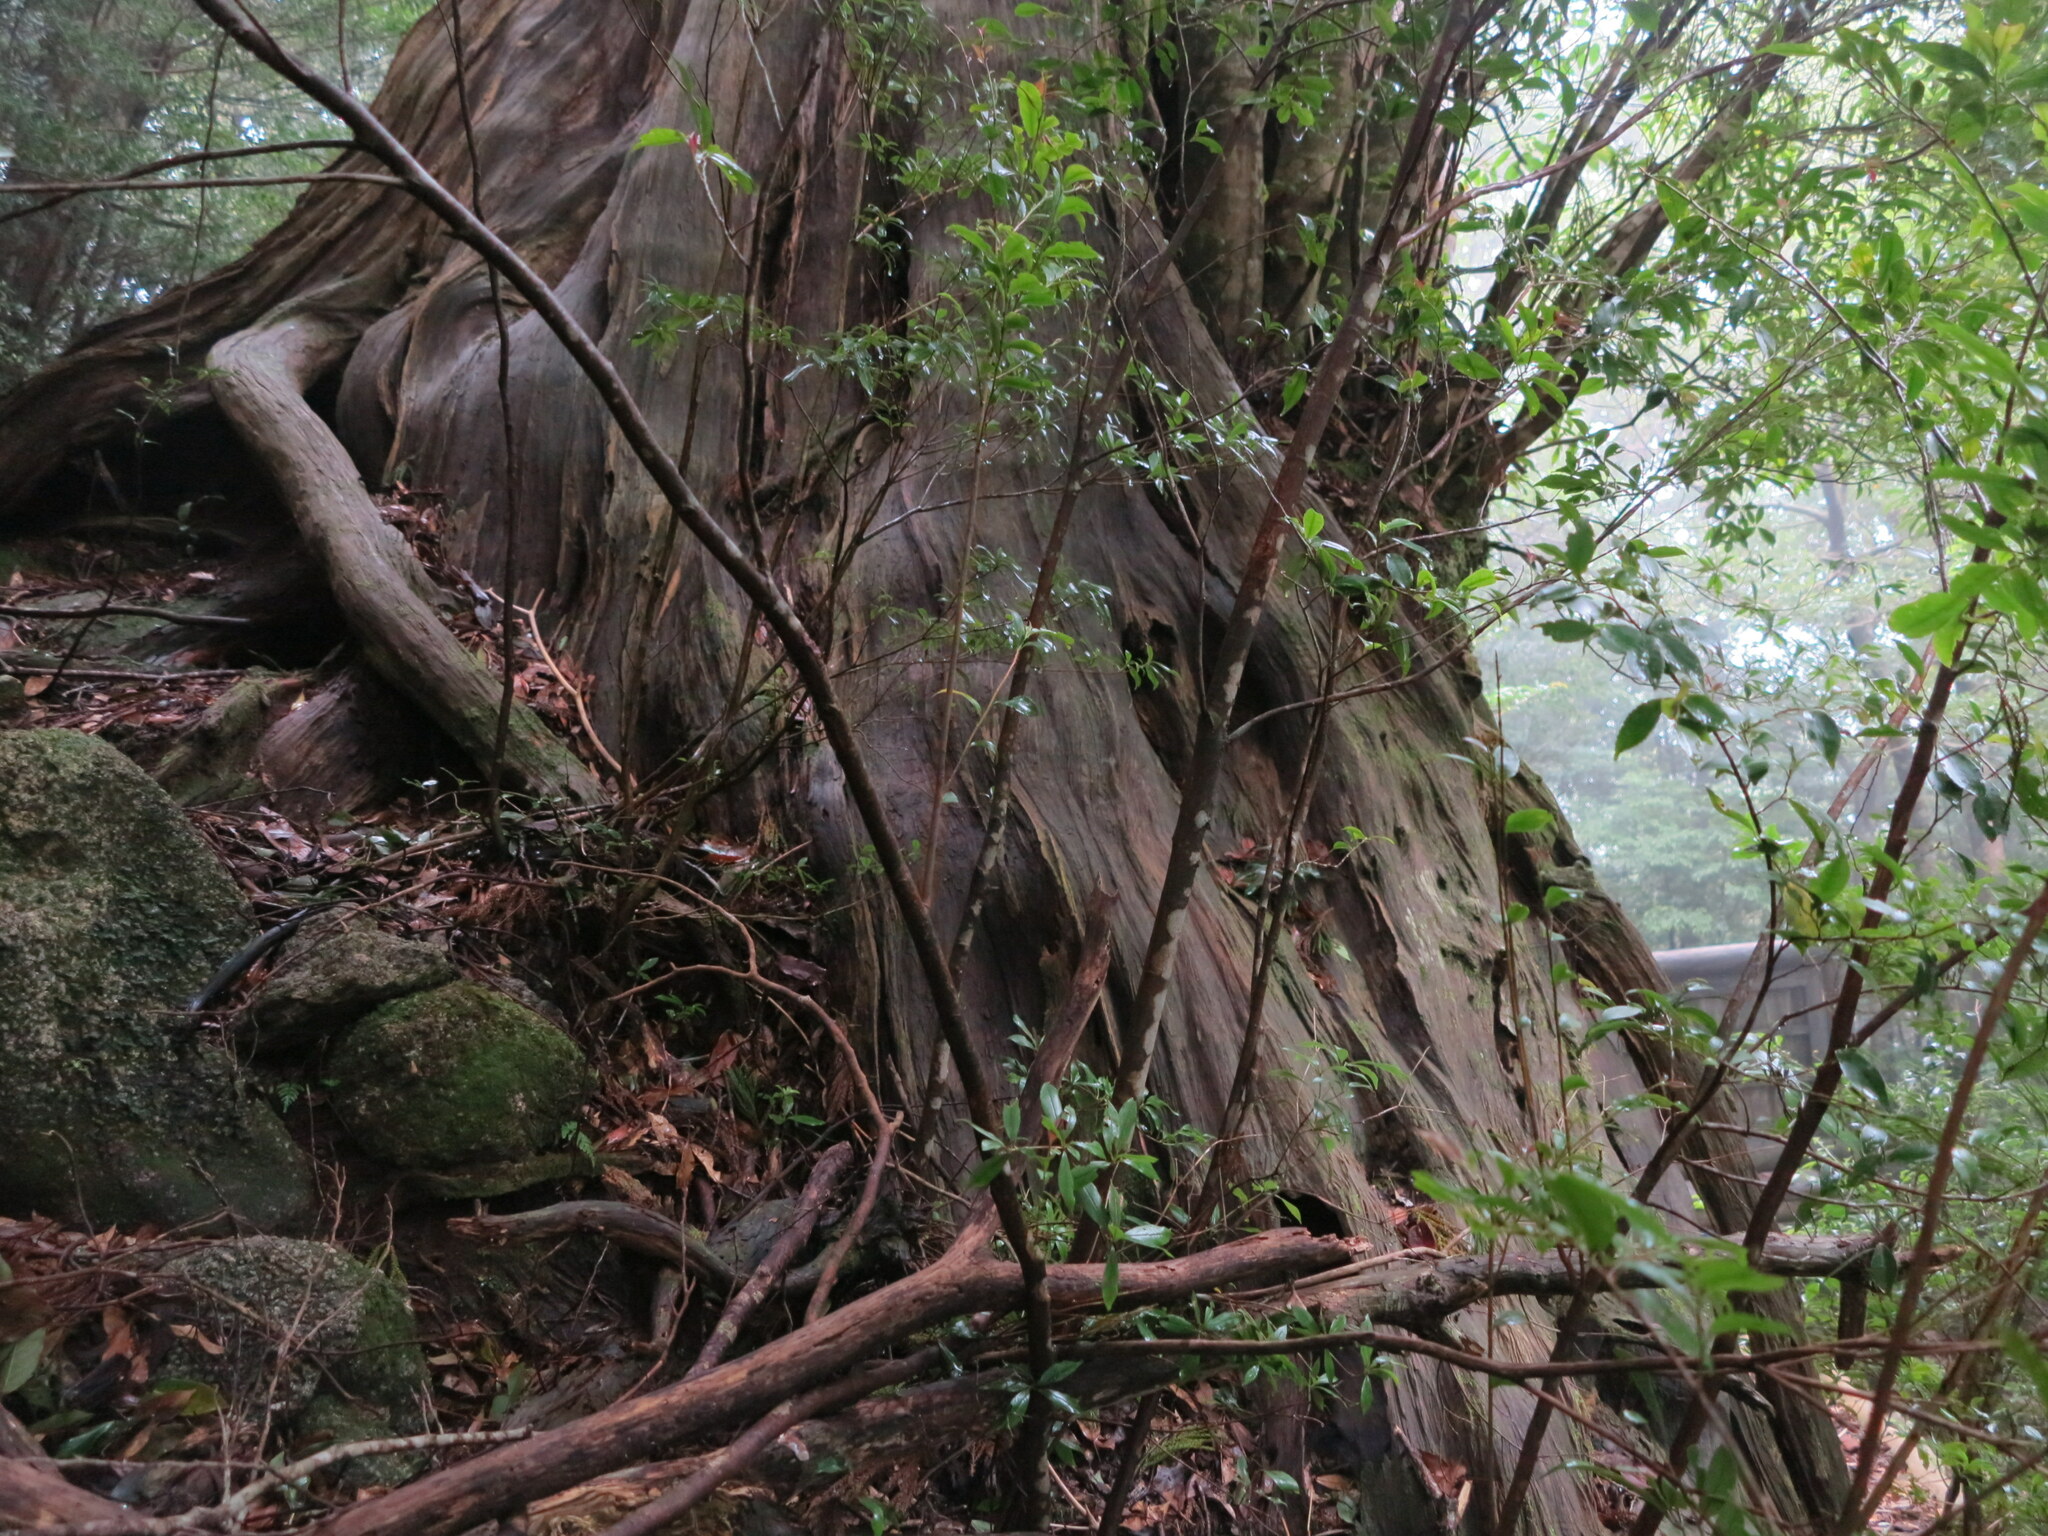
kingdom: Plantae
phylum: Tracheophyta
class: Pinopsida
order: Pinales
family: Cupressaceae
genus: Cryptomeria
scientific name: Cryptomeria japonica
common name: Japanese cedar
